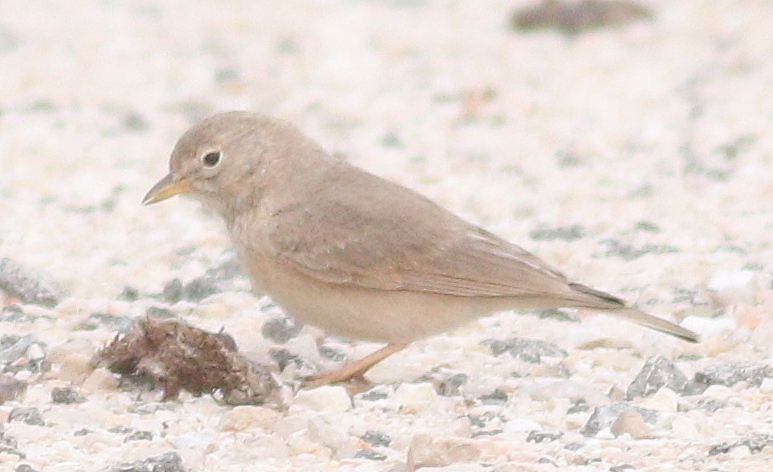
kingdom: Animalia
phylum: Chordata
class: Aves
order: Passeriformes
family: Alaudidae
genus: Ammomanes
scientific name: Ammomanes deserti
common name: Desert lark
